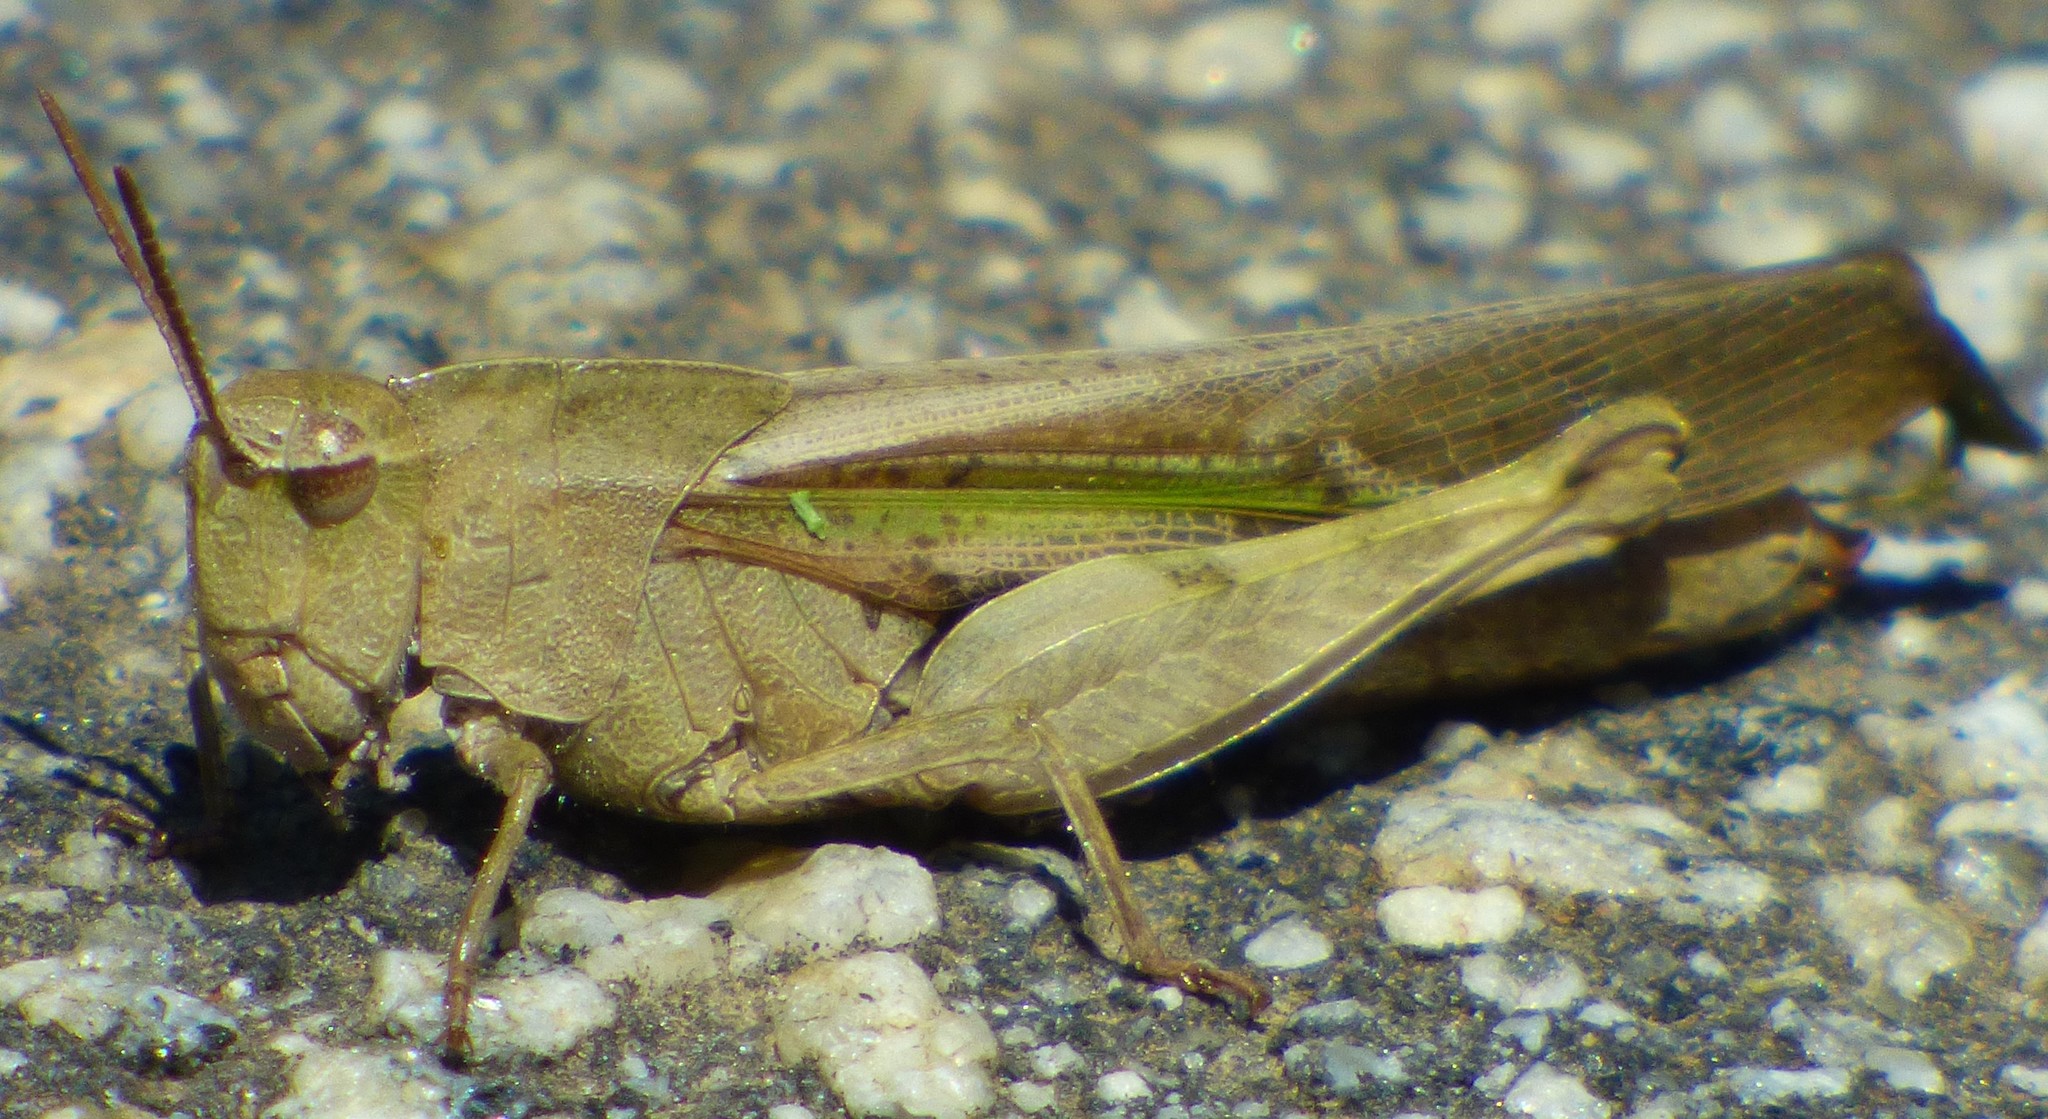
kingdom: Animalia
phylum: Arthropoda
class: Insecta
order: Orthoptera
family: Acrididae
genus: Chortophaga
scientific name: Chortophaga viridifasciata
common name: Green-striped grasshopper
